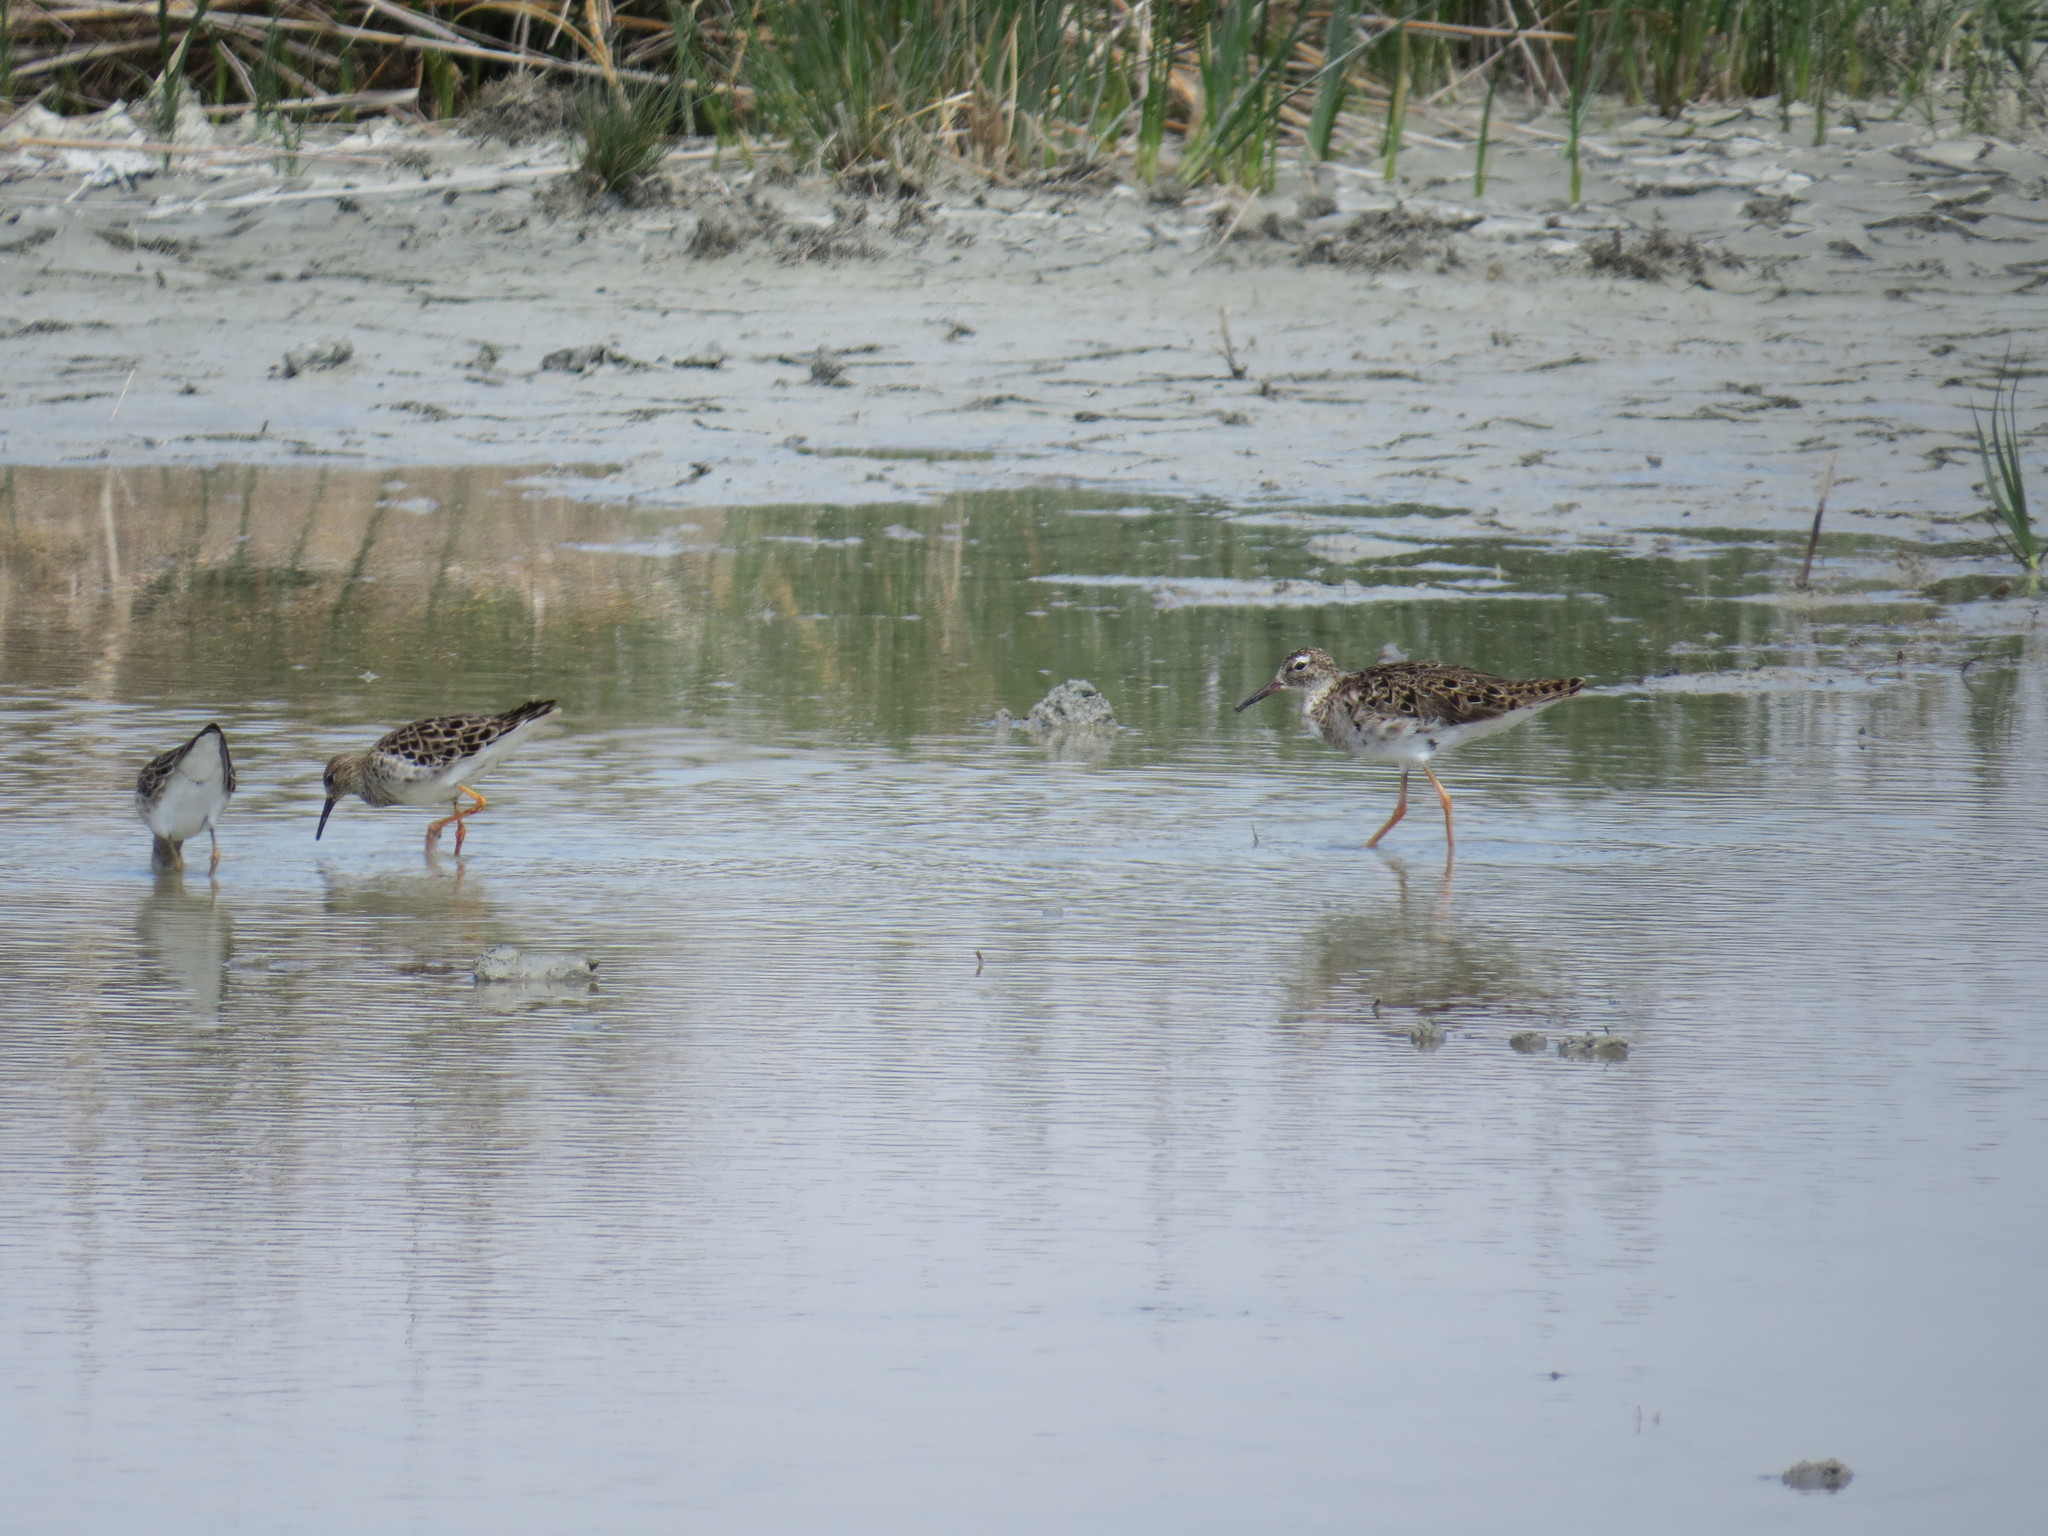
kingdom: Animalia
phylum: Chordata
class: Aves
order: Charadriiformes
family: Scolopacidae
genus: Calidris
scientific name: Calidris pugnax
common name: Ruff
